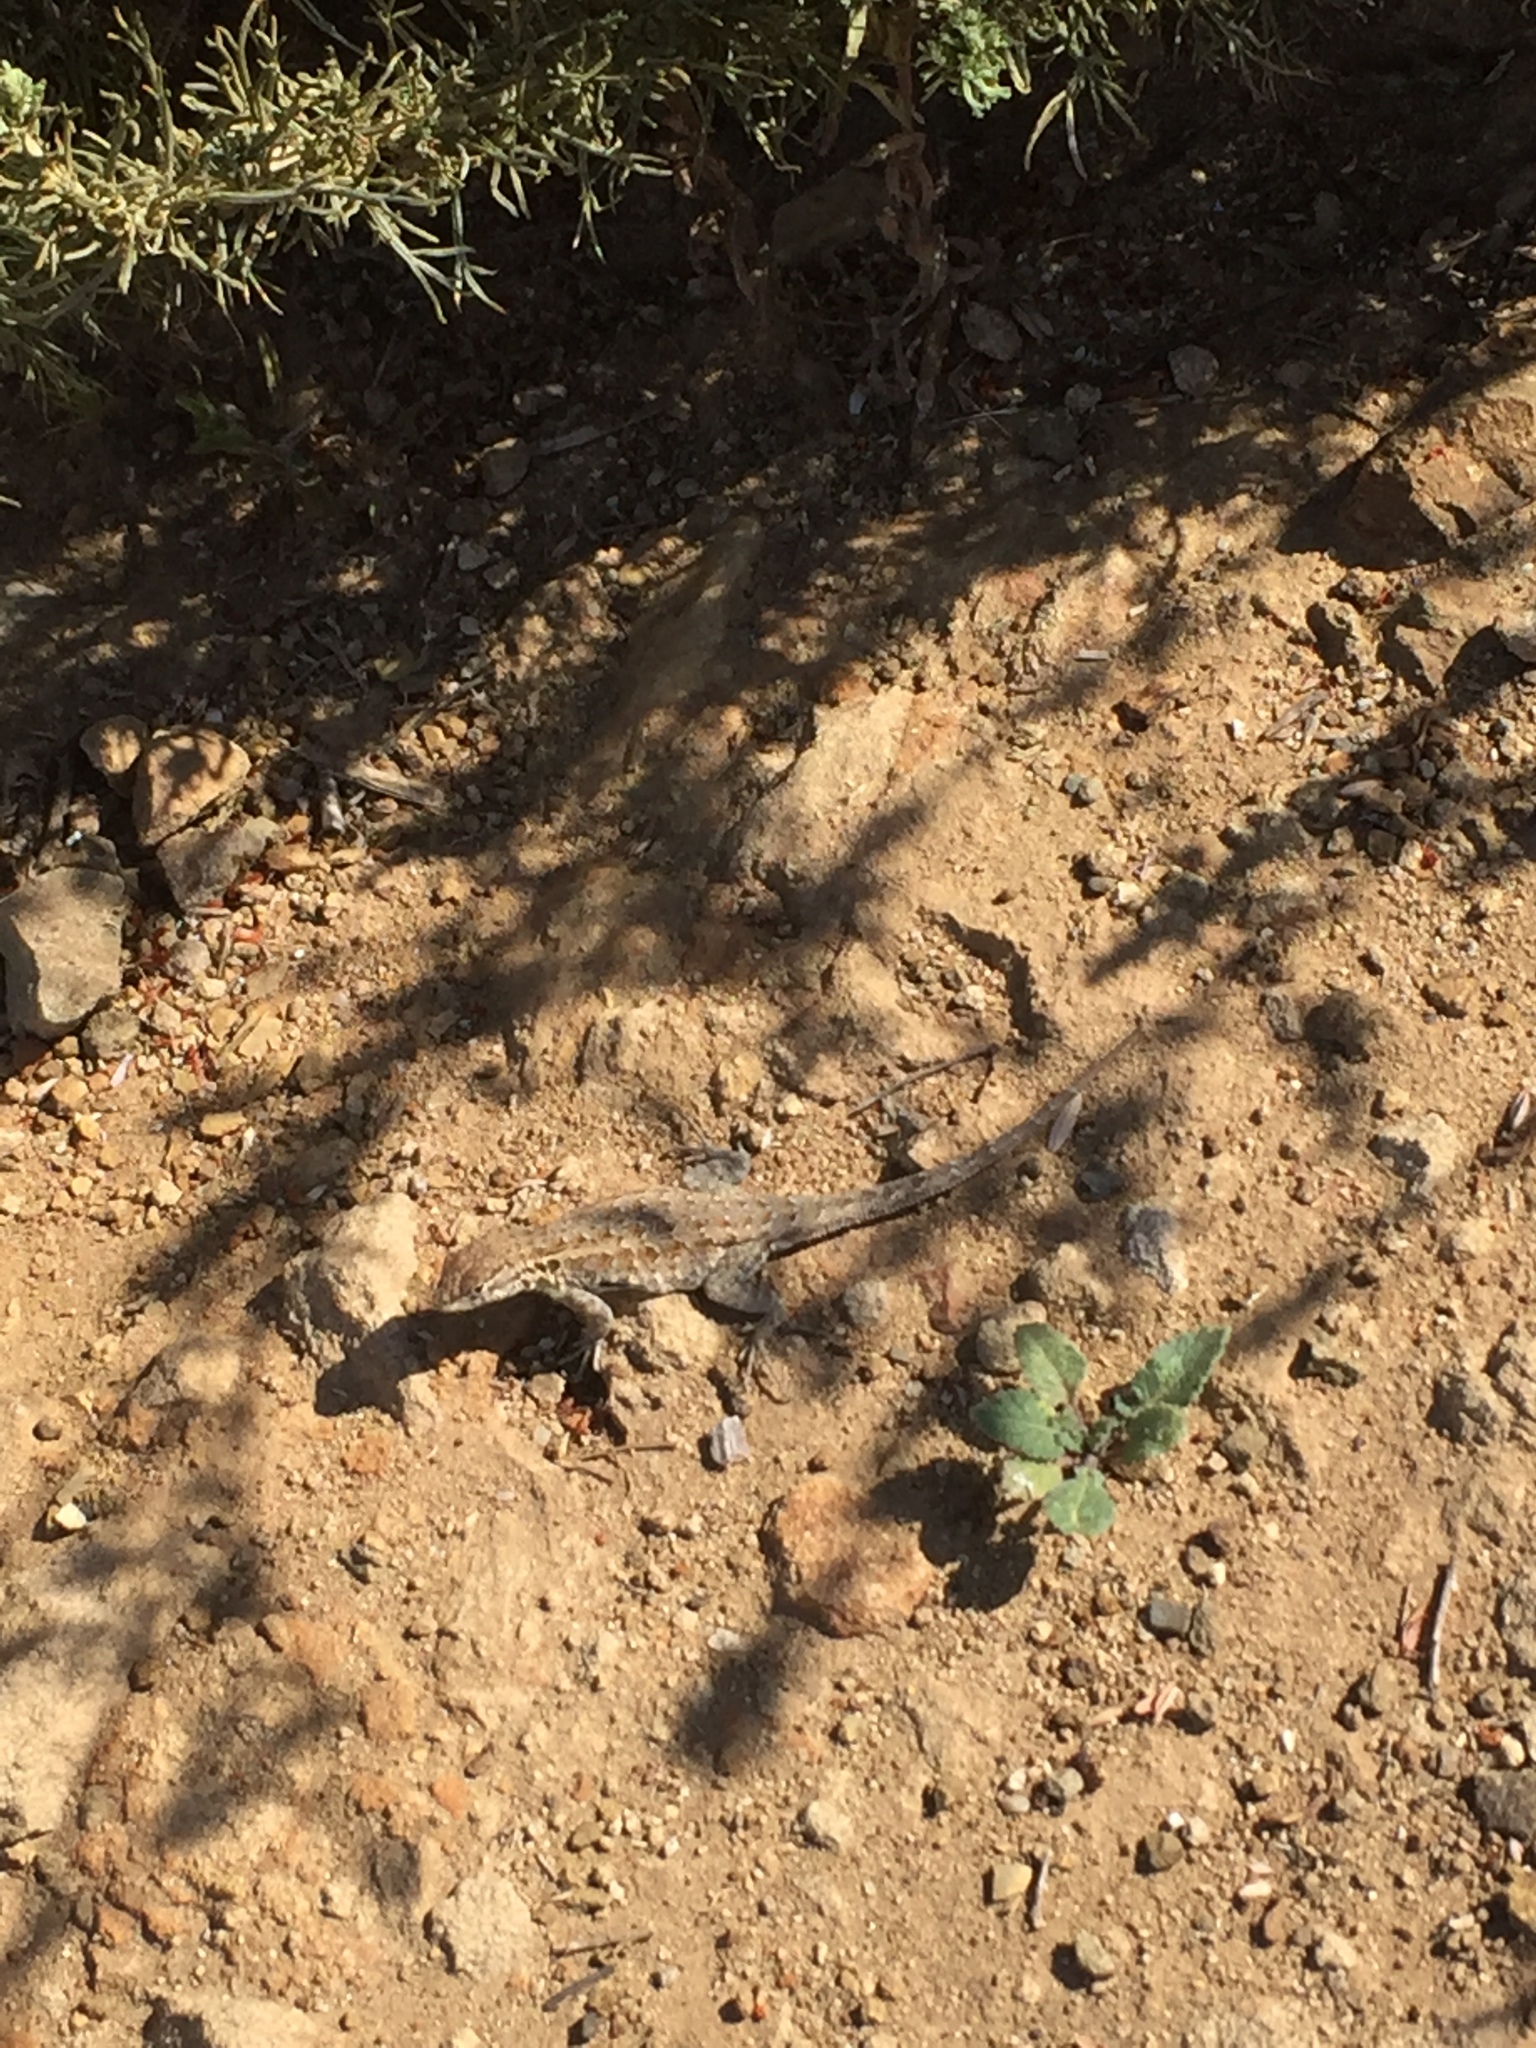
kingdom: Animalia
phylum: Chordata
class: Squamata
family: Phrynosomatidae
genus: Uta
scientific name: Uta stansburiana
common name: Side-blotched lizard
